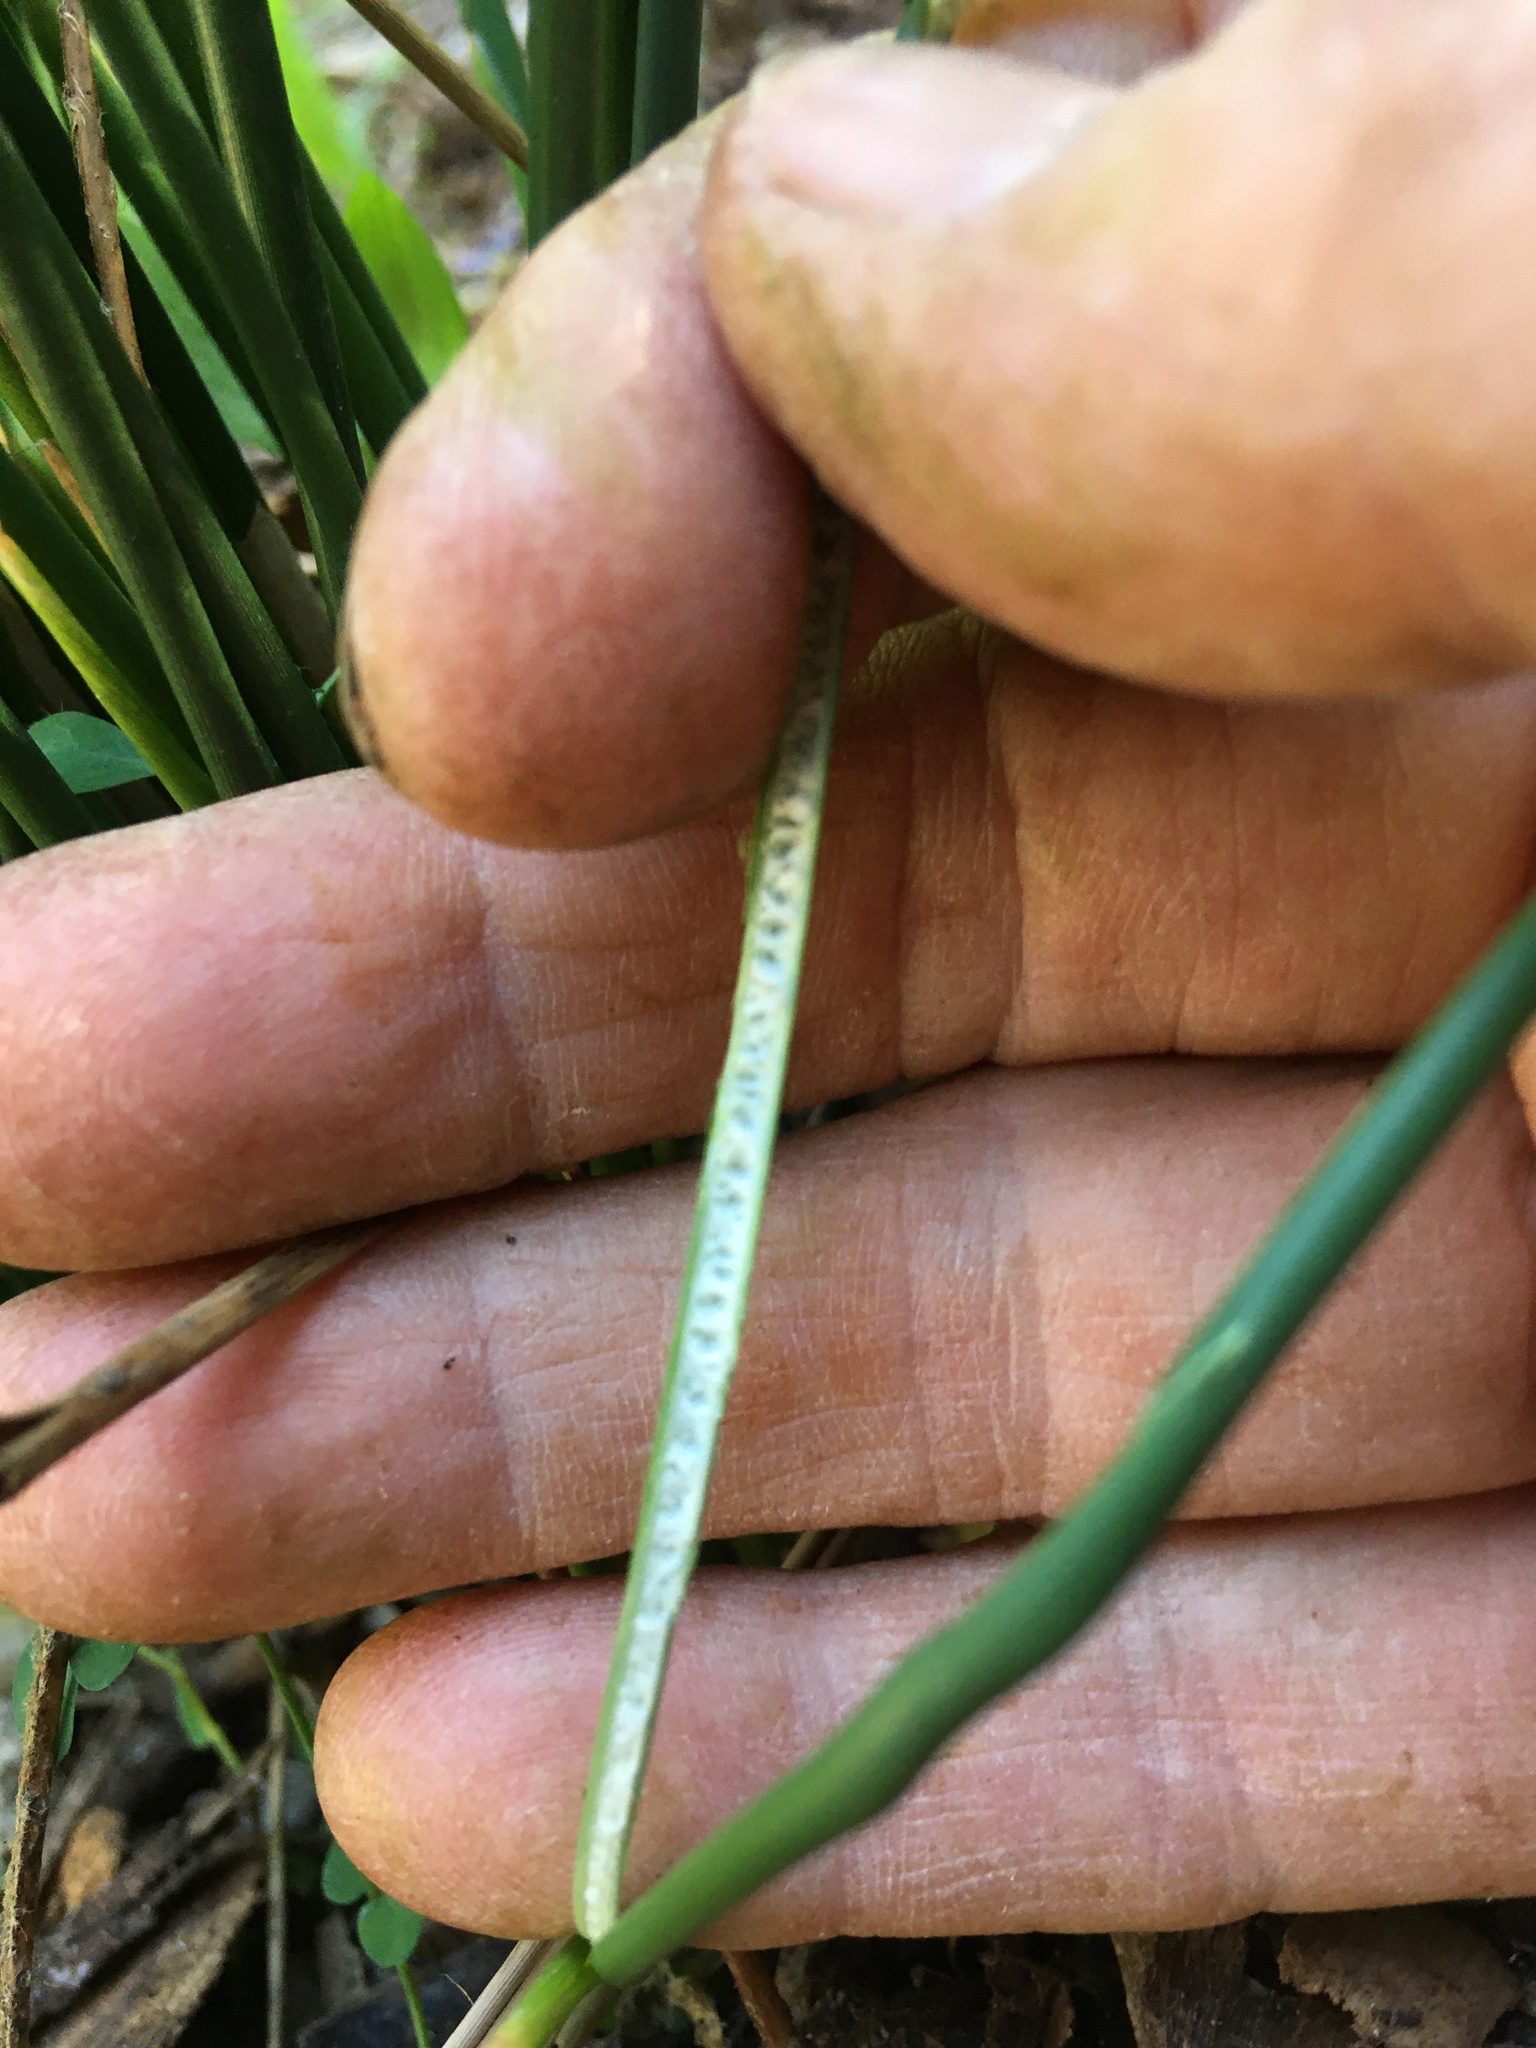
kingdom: Plantae
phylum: Tracheophyta
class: Liliopsida
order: Poales
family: Juncaceae
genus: Juncus
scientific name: Juncus australis
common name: Austral rush
